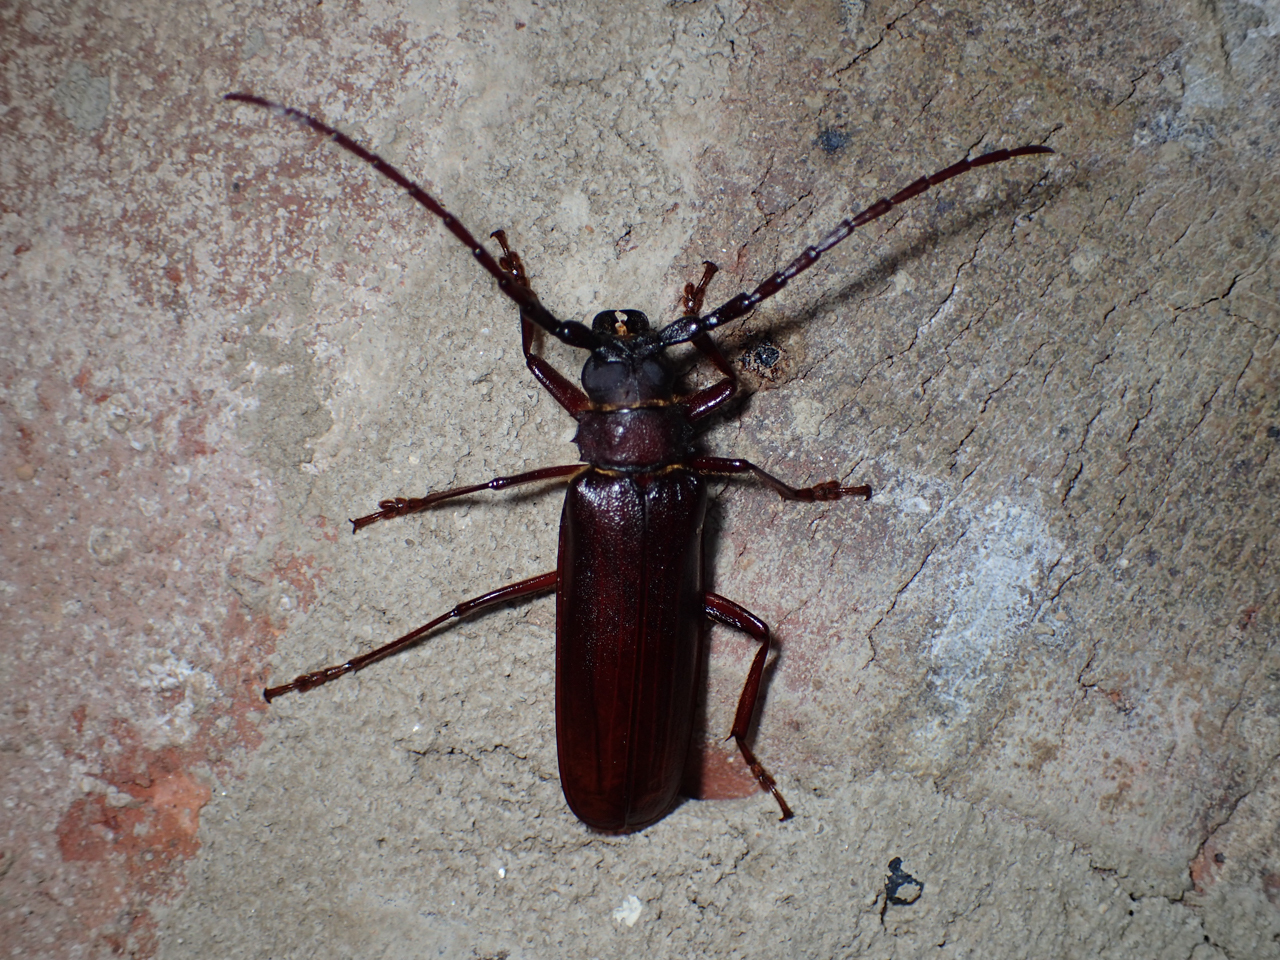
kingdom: Animalia
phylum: Arthropoda
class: Insecta
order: Coleoptera
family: Cerambycidae
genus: Orthosoma
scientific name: Orthosoma brunneum
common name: Brown prionid beetle
